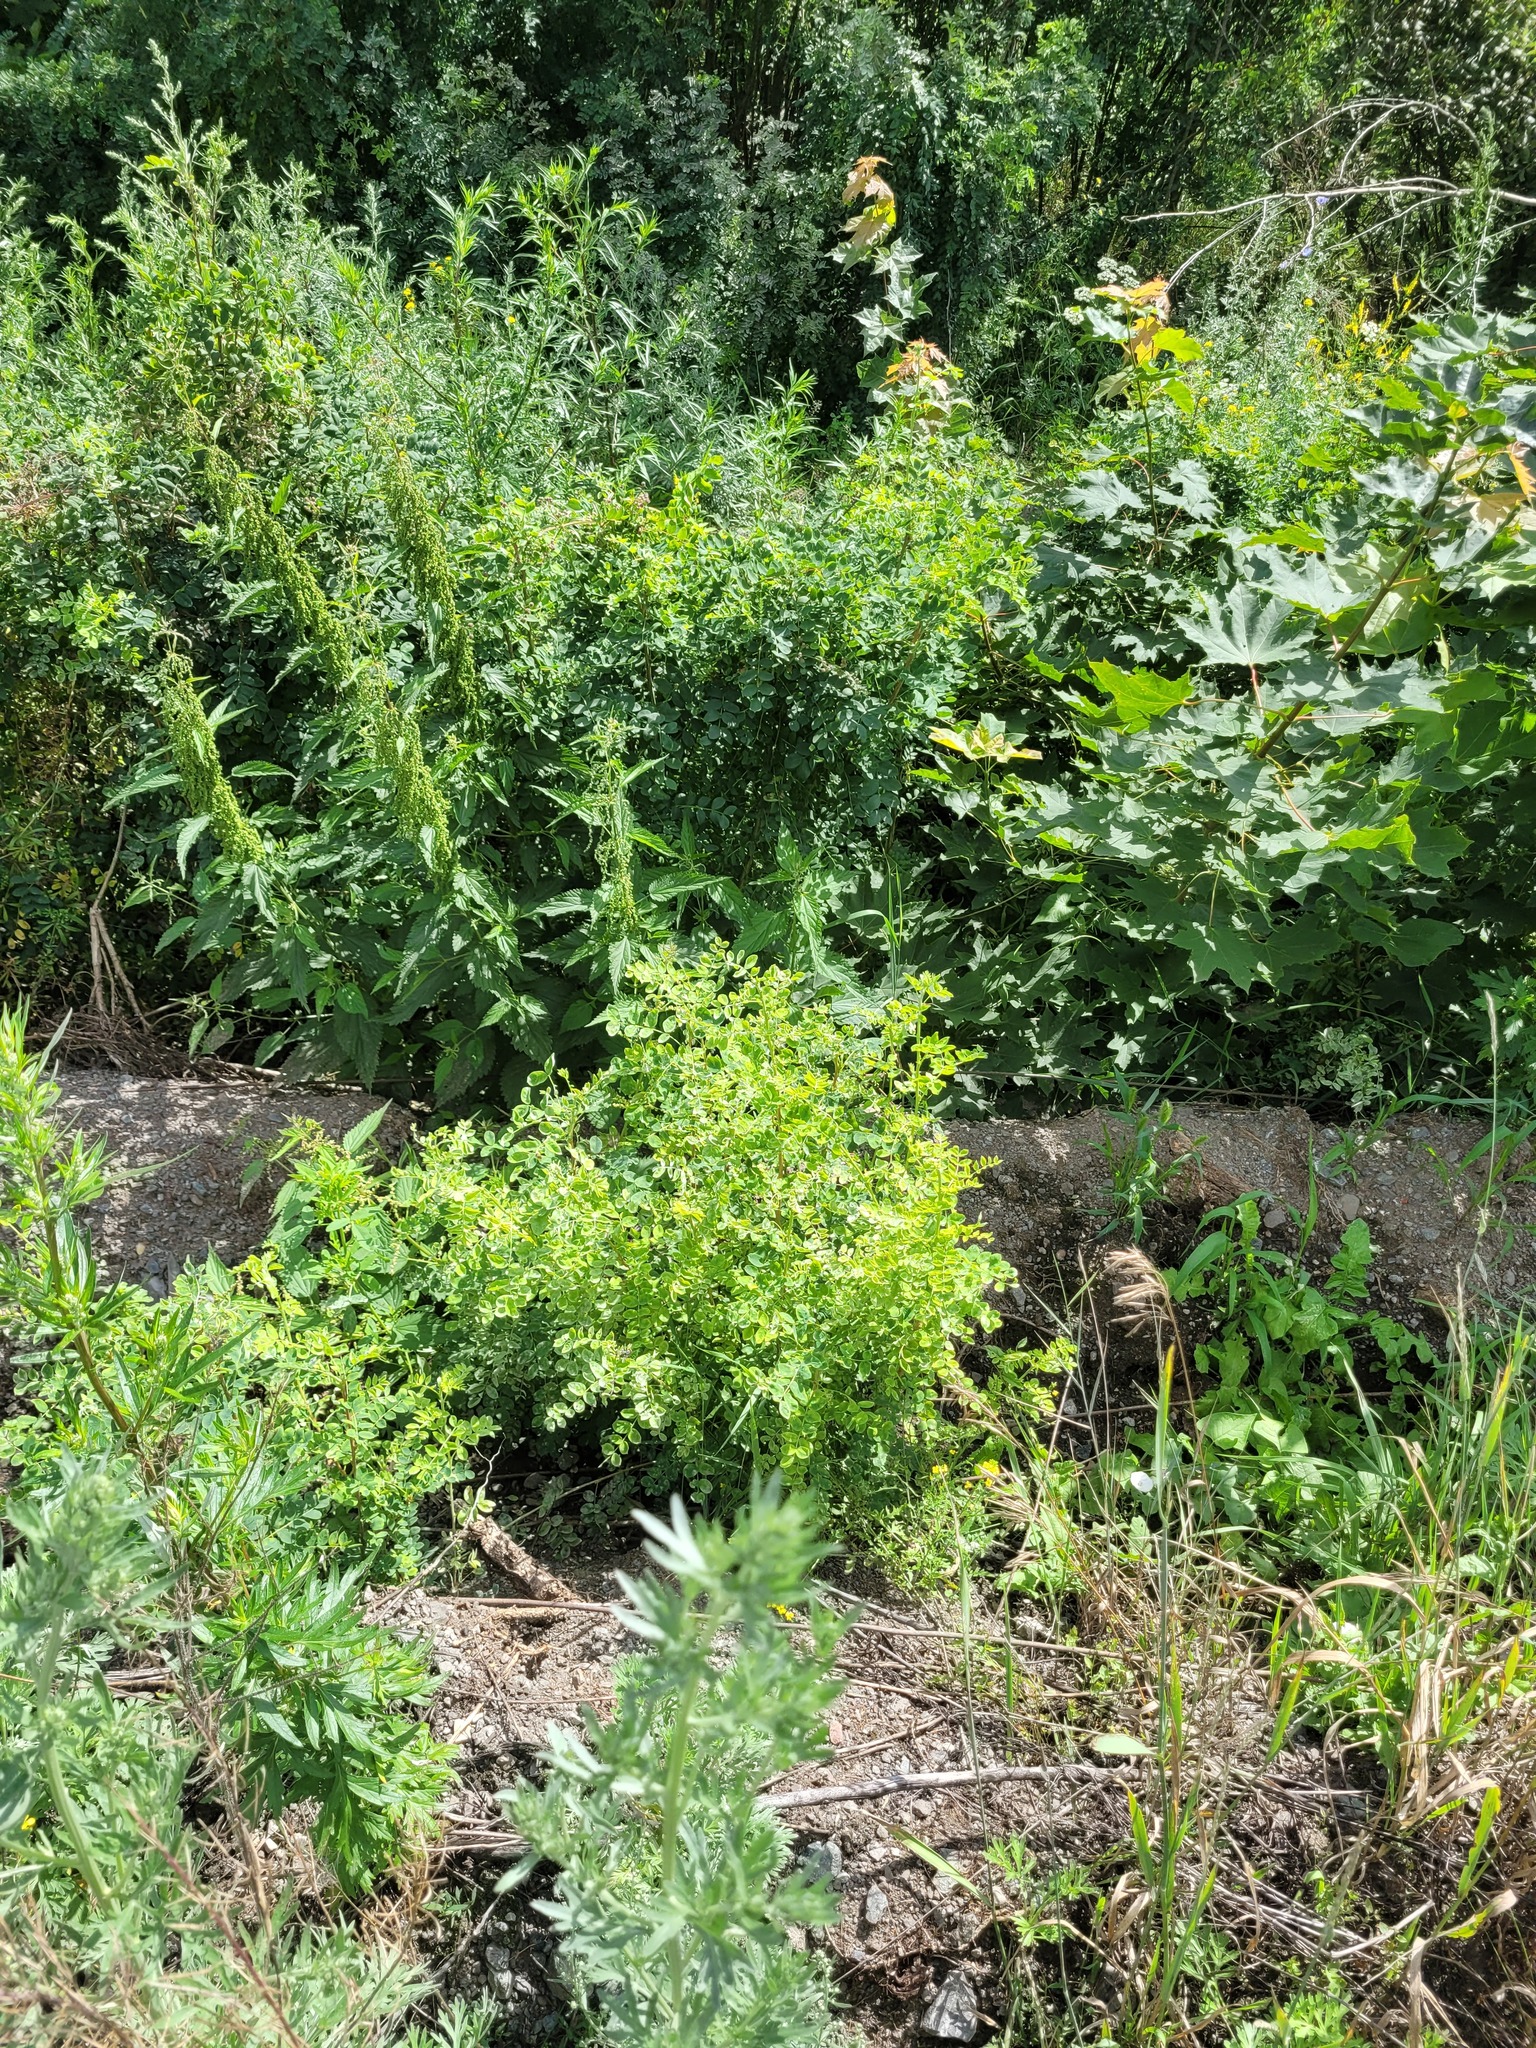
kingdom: Plantae
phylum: Tracheophyta
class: Magnoliopsida
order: Fabales
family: Fabaceae
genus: Caragana
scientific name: Caragana arborescens
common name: Siberian peashrub
